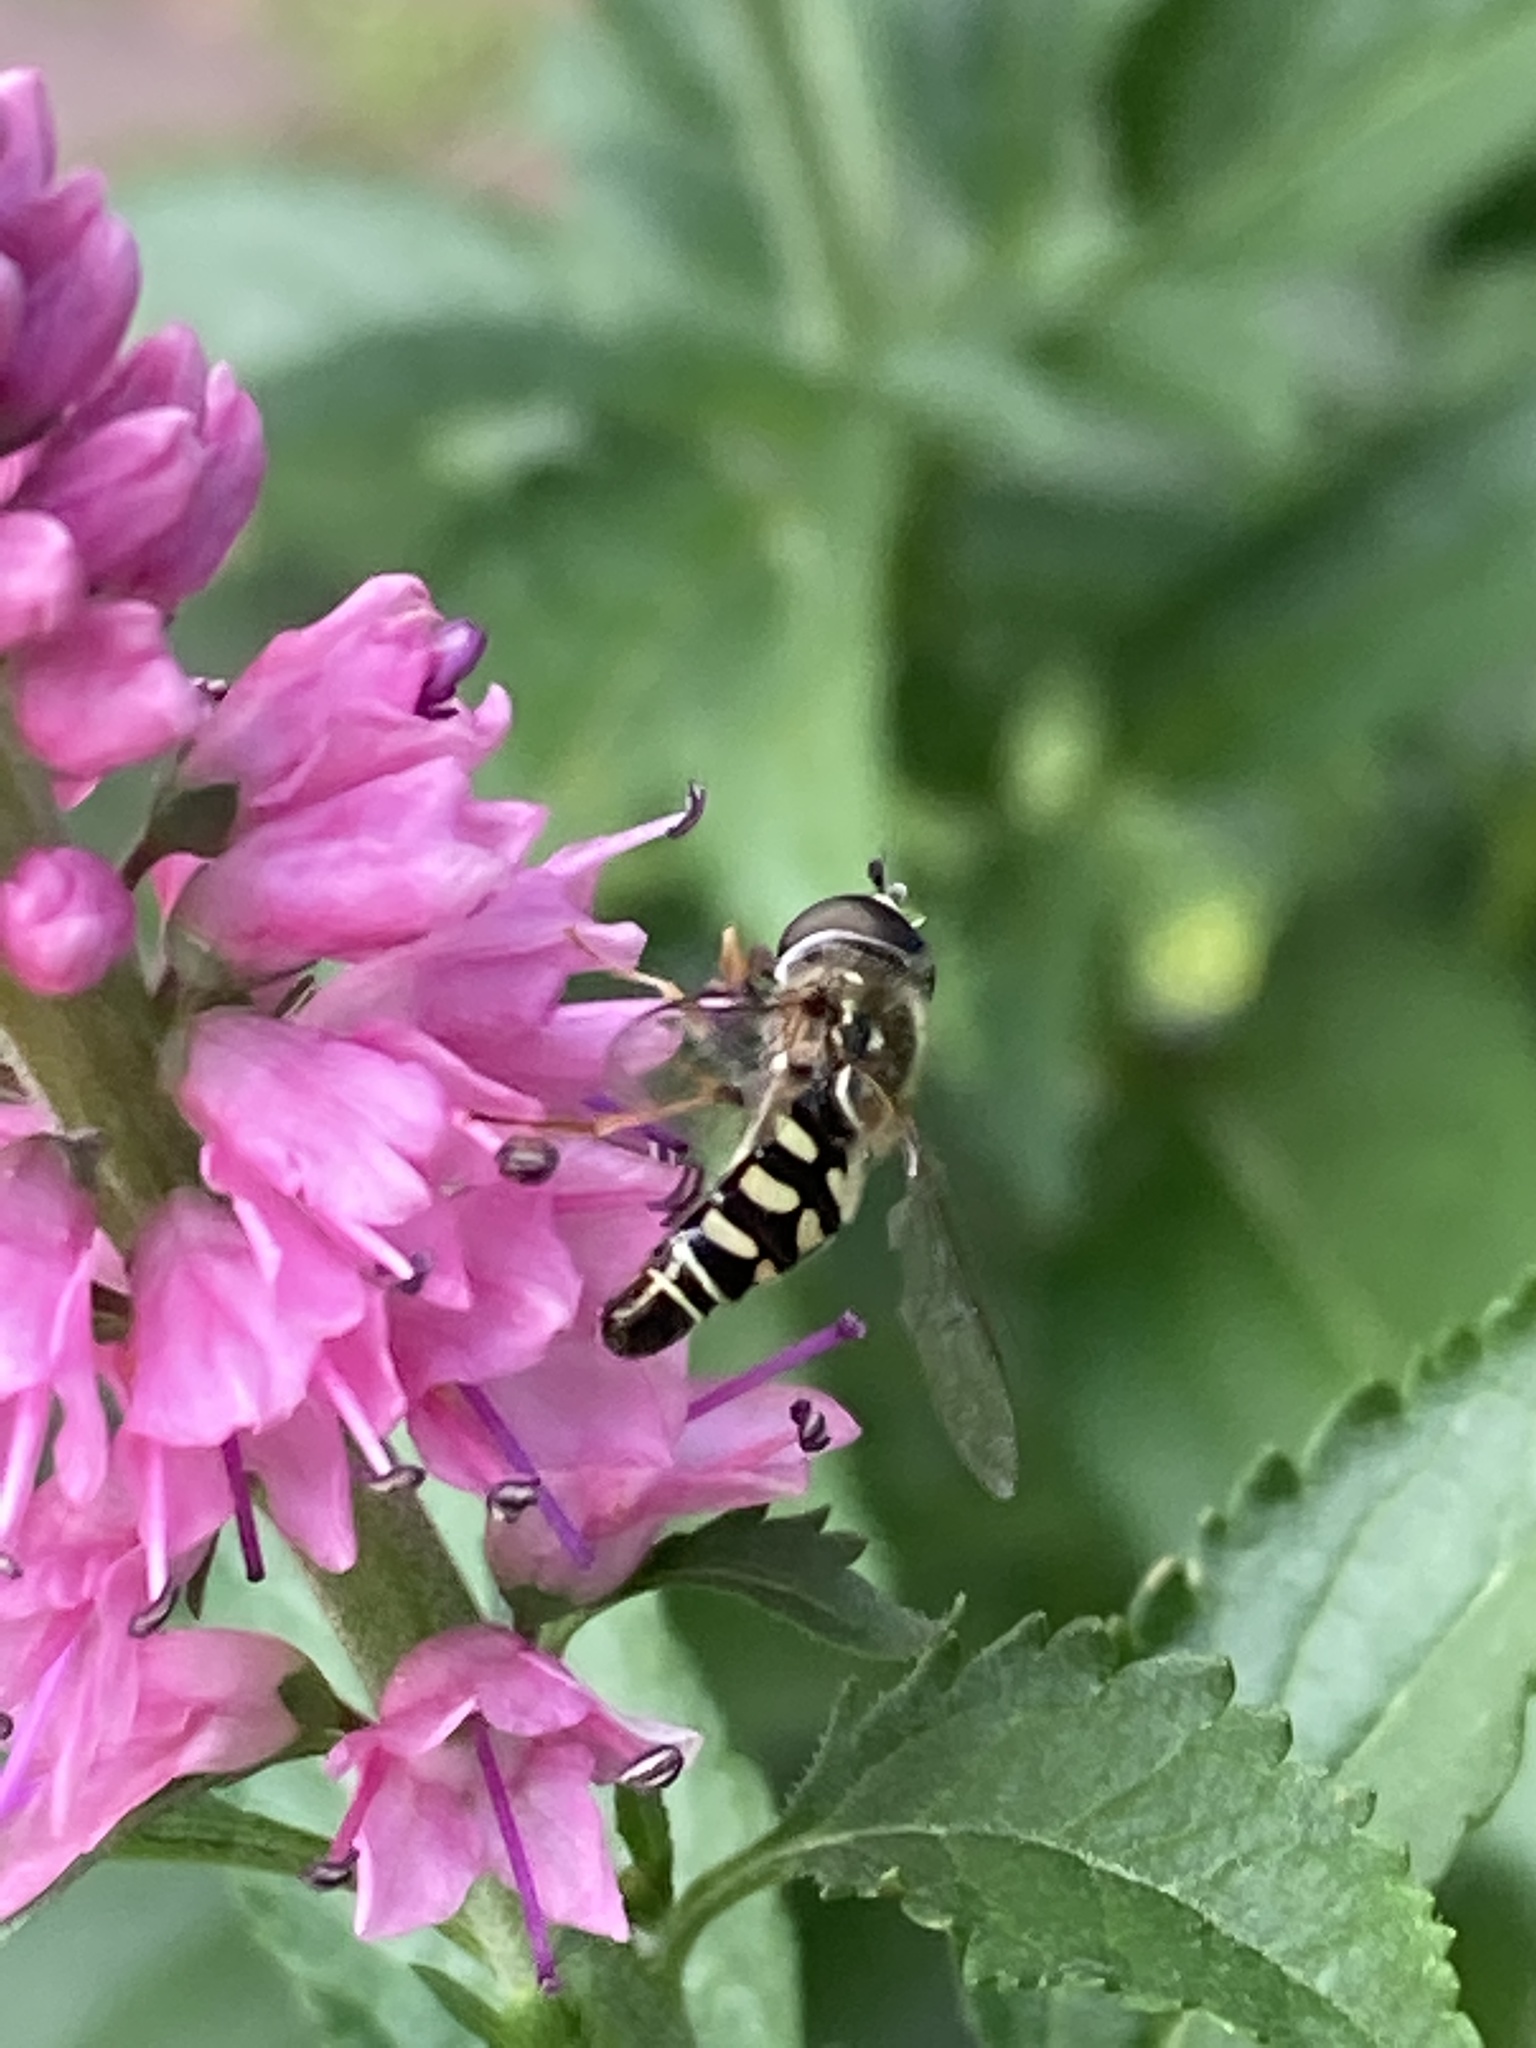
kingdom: Animalia
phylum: Arthropoda
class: Insecta
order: Diptera
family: Syrphidae
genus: Eupeodes
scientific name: Eupeodes volucris
